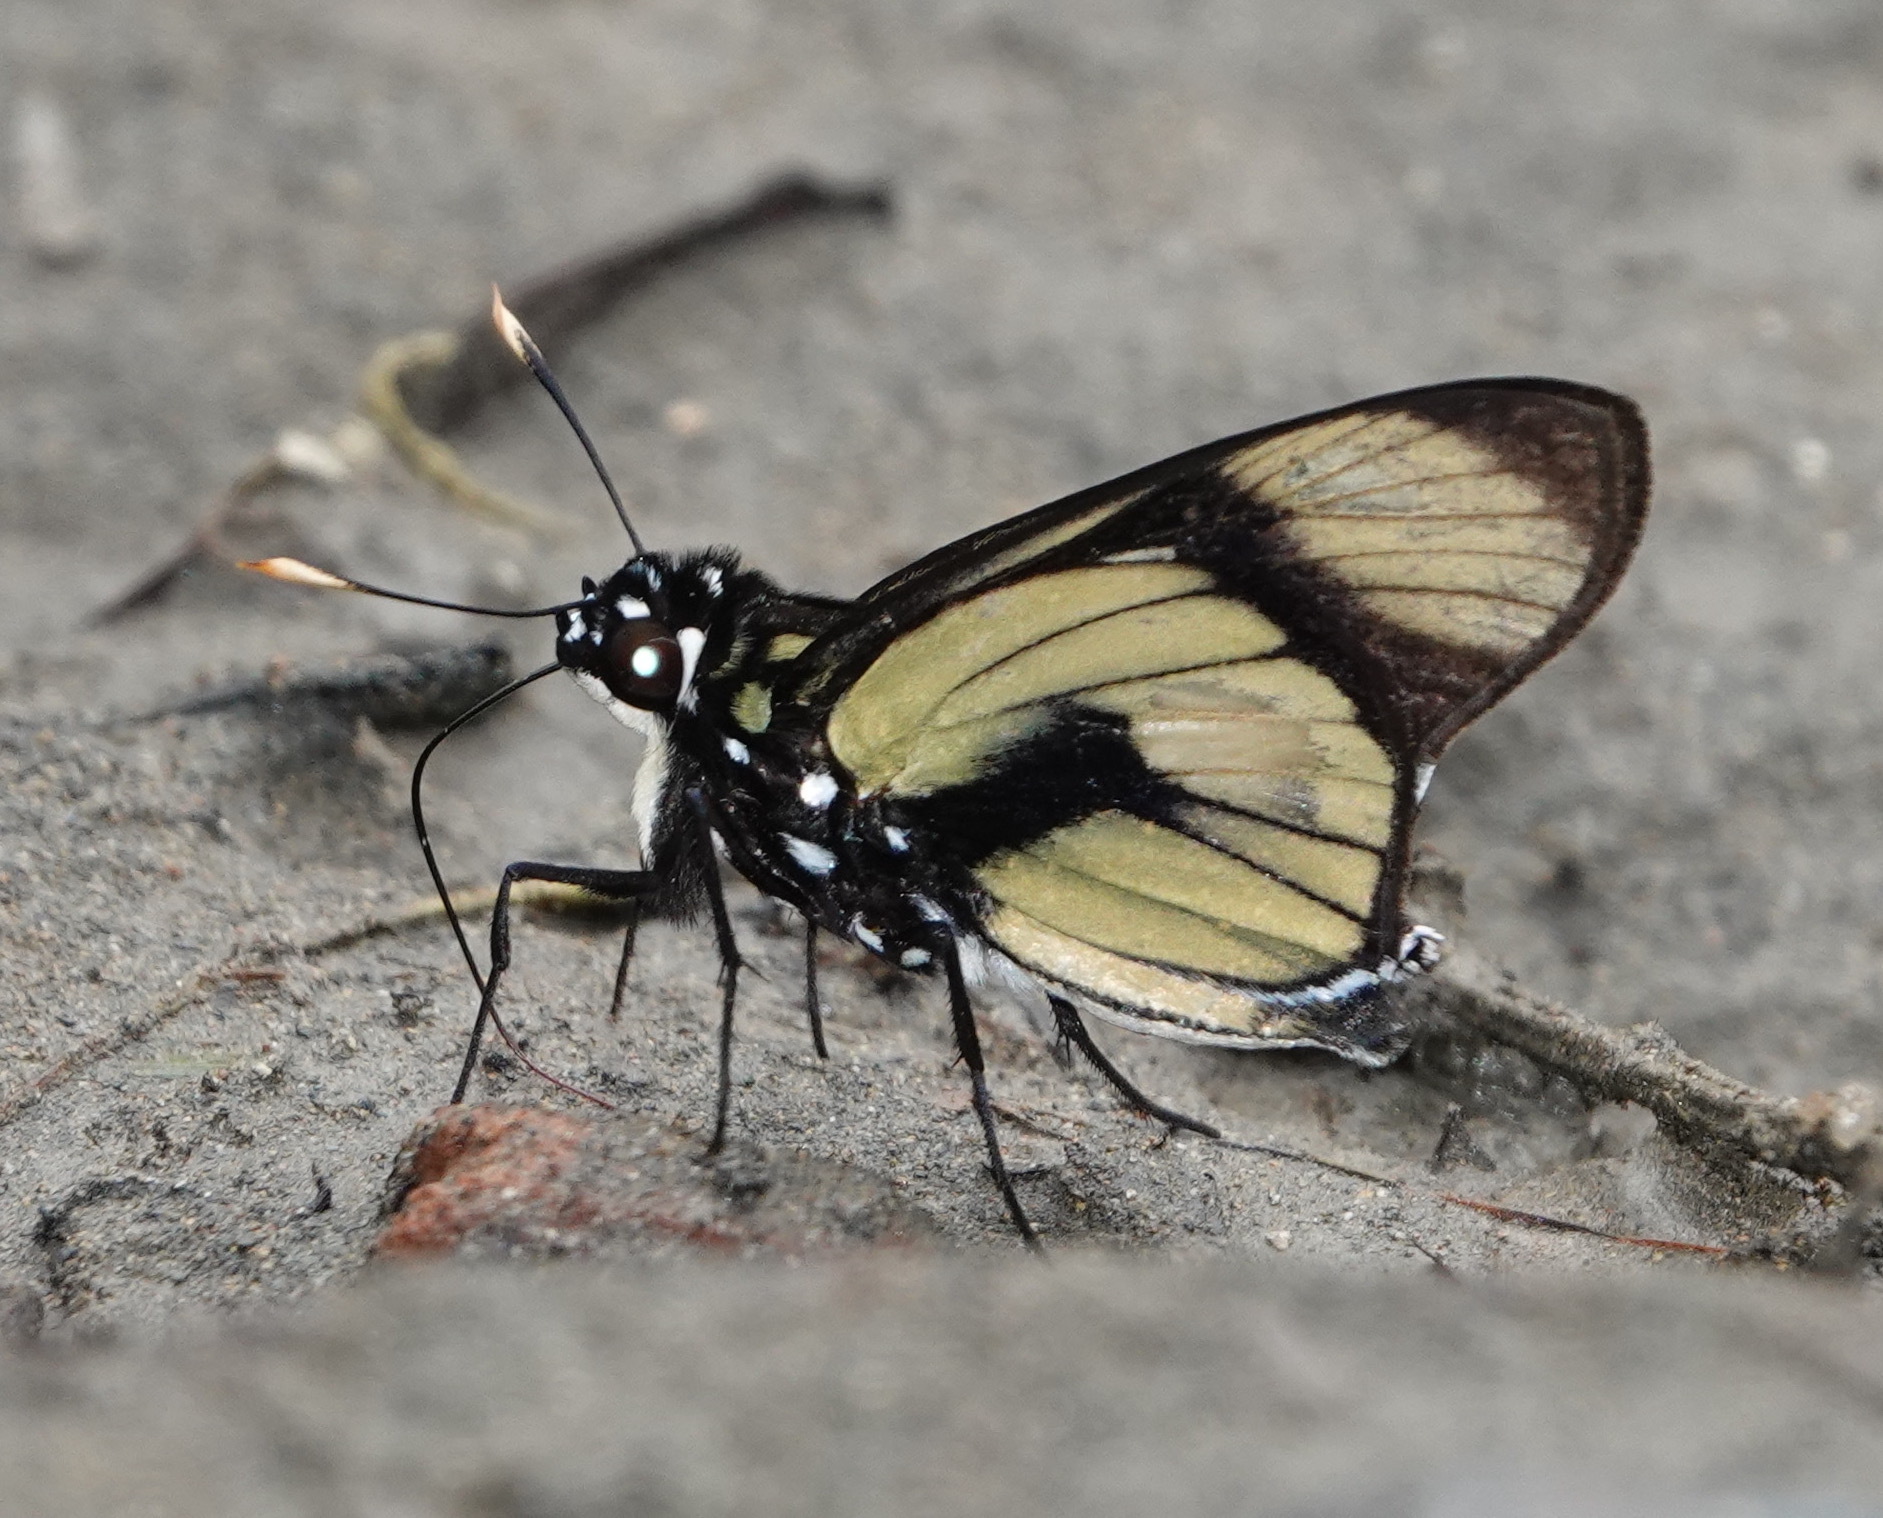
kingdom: Animalia
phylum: Arthropoda
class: Insecta
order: Lepidoptera
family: Hesperiidae
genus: Chloeria
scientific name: Chloeria psittacina
